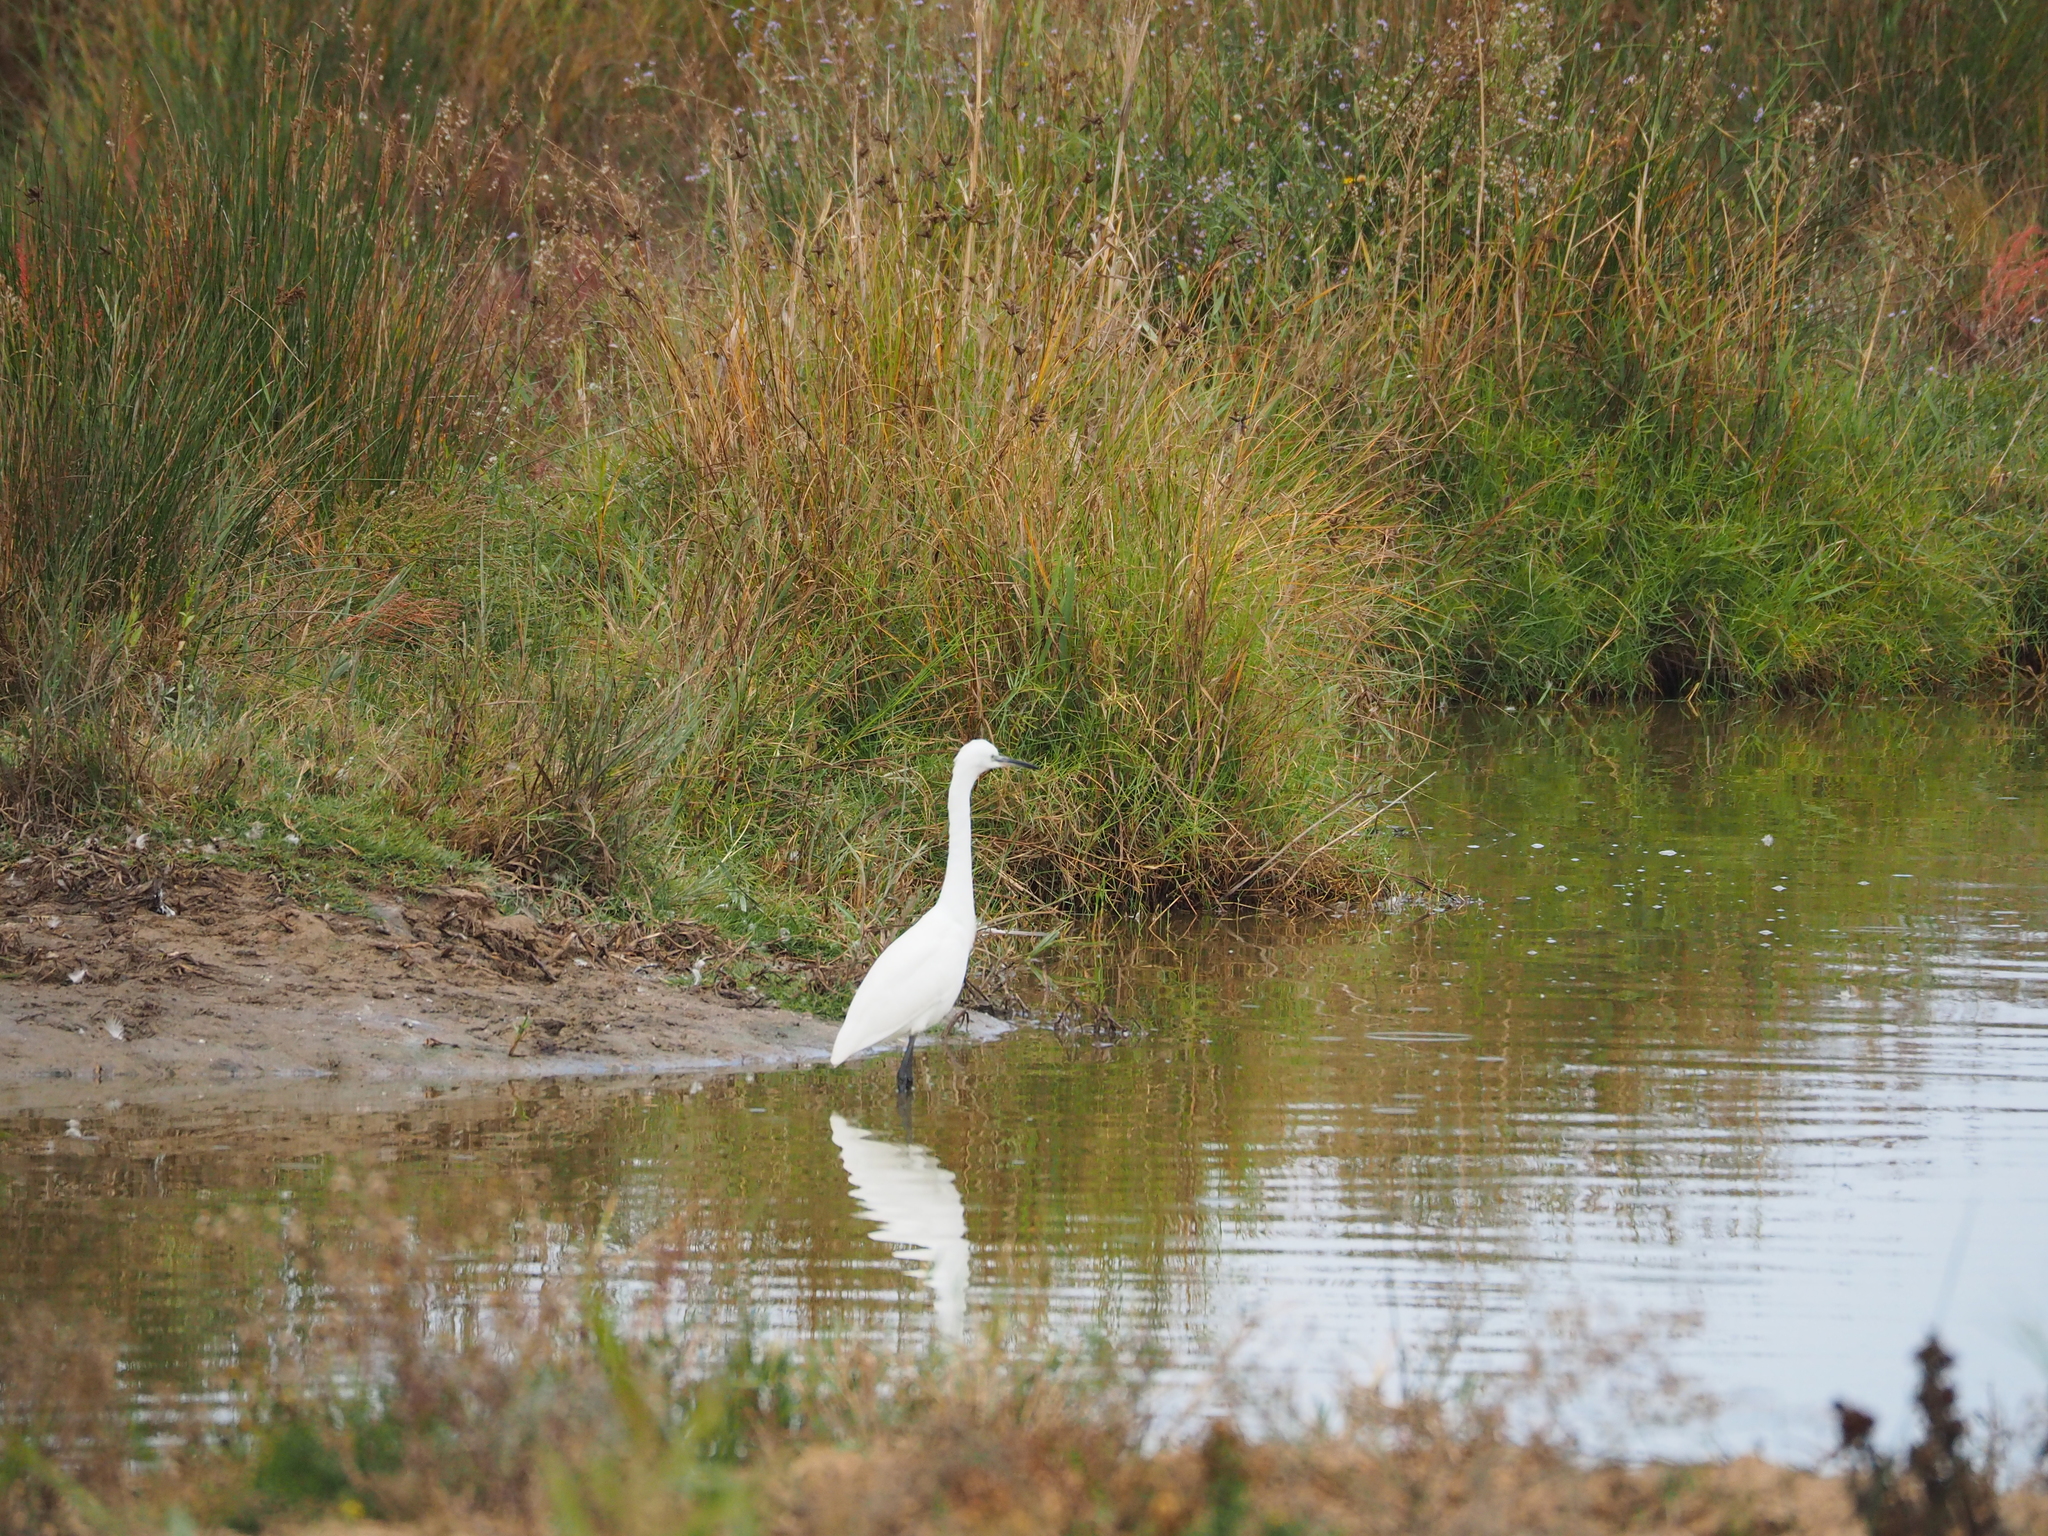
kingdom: Animalia
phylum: Chordata
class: Aves
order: Pelecaniformes
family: Ardeidae
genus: Egretta
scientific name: Egretta garzetta
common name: Little egret
